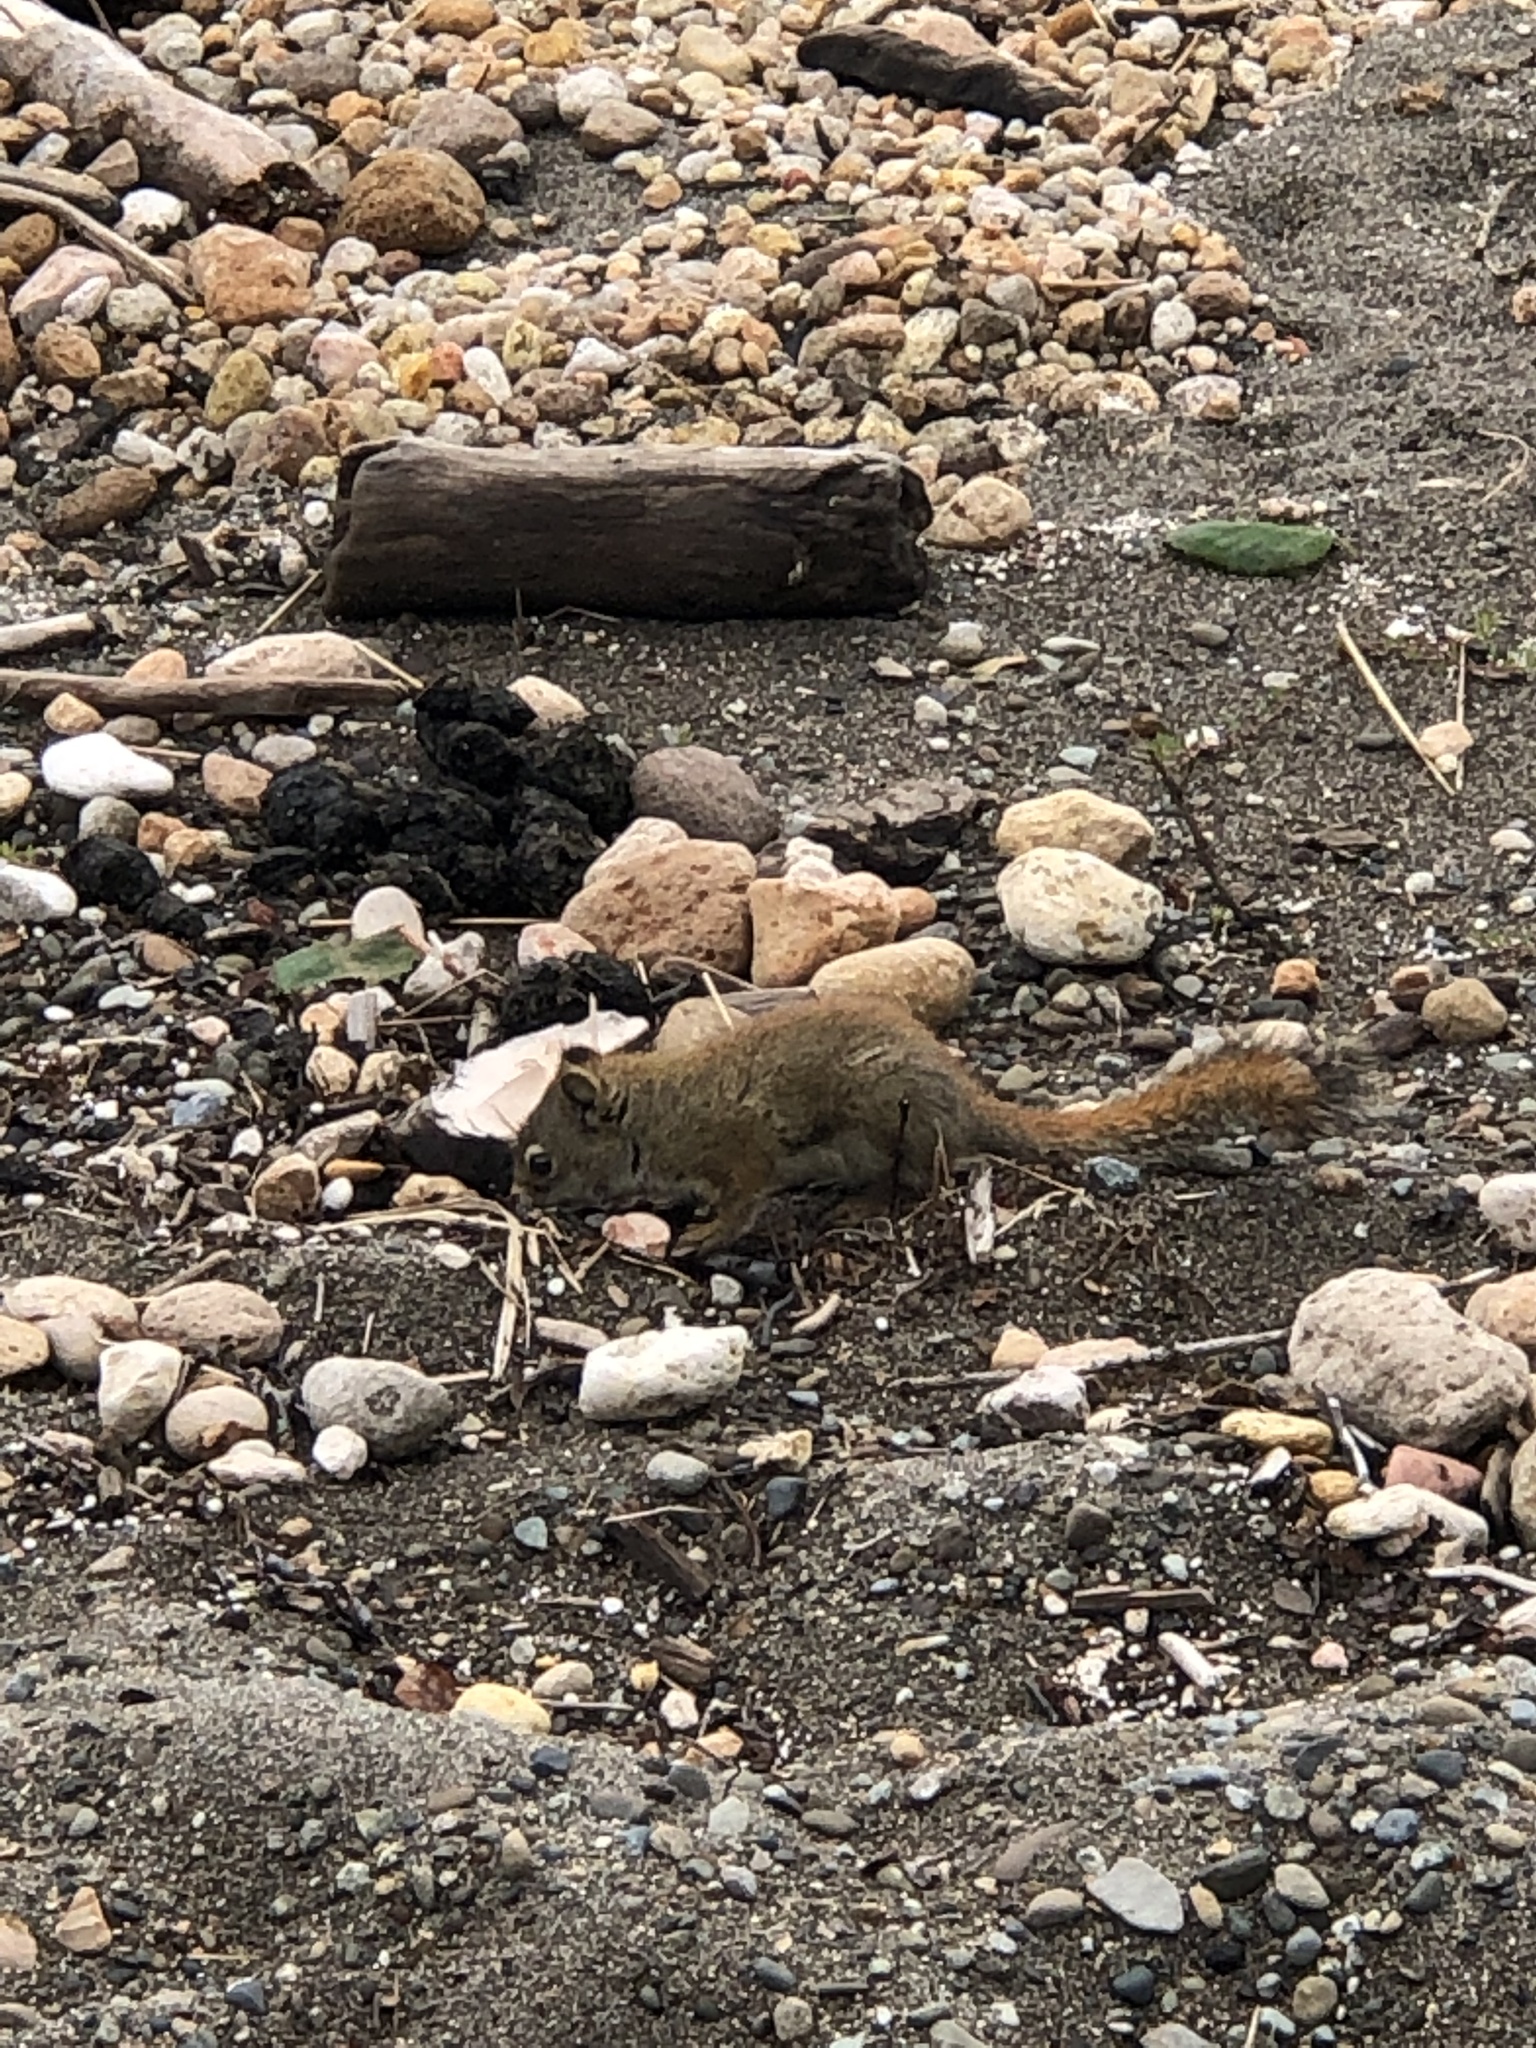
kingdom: Animalia
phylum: Chordata
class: Mammalia
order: Rodentia
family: Sciuridae
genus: Tamiasciurus
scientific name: Tamiasciurus hudsonicus
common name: Red squirrel
